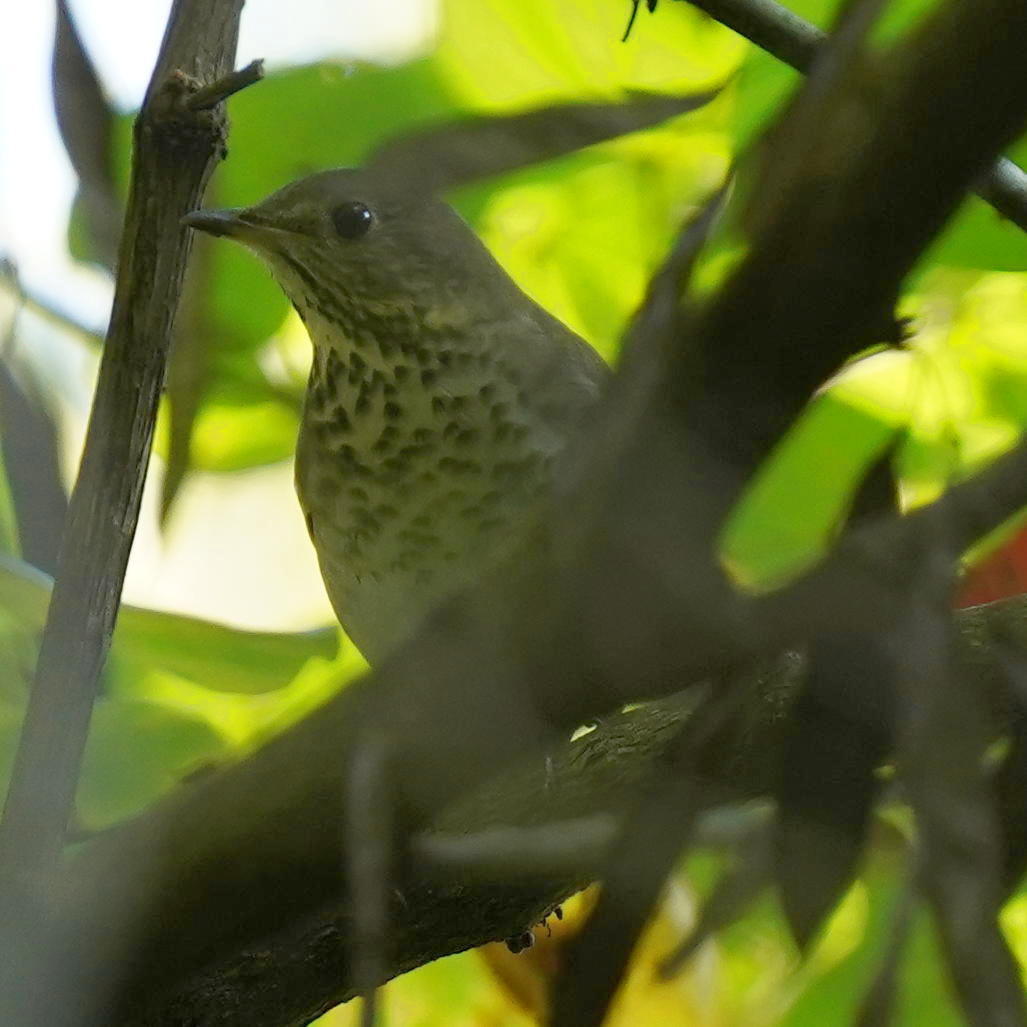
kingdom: Animalia
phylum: Chordata
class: Aves
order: Passeriformes
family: Turdidae
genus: Catharus
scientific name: Catharus minimus
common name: Grey-cheeked thrush
